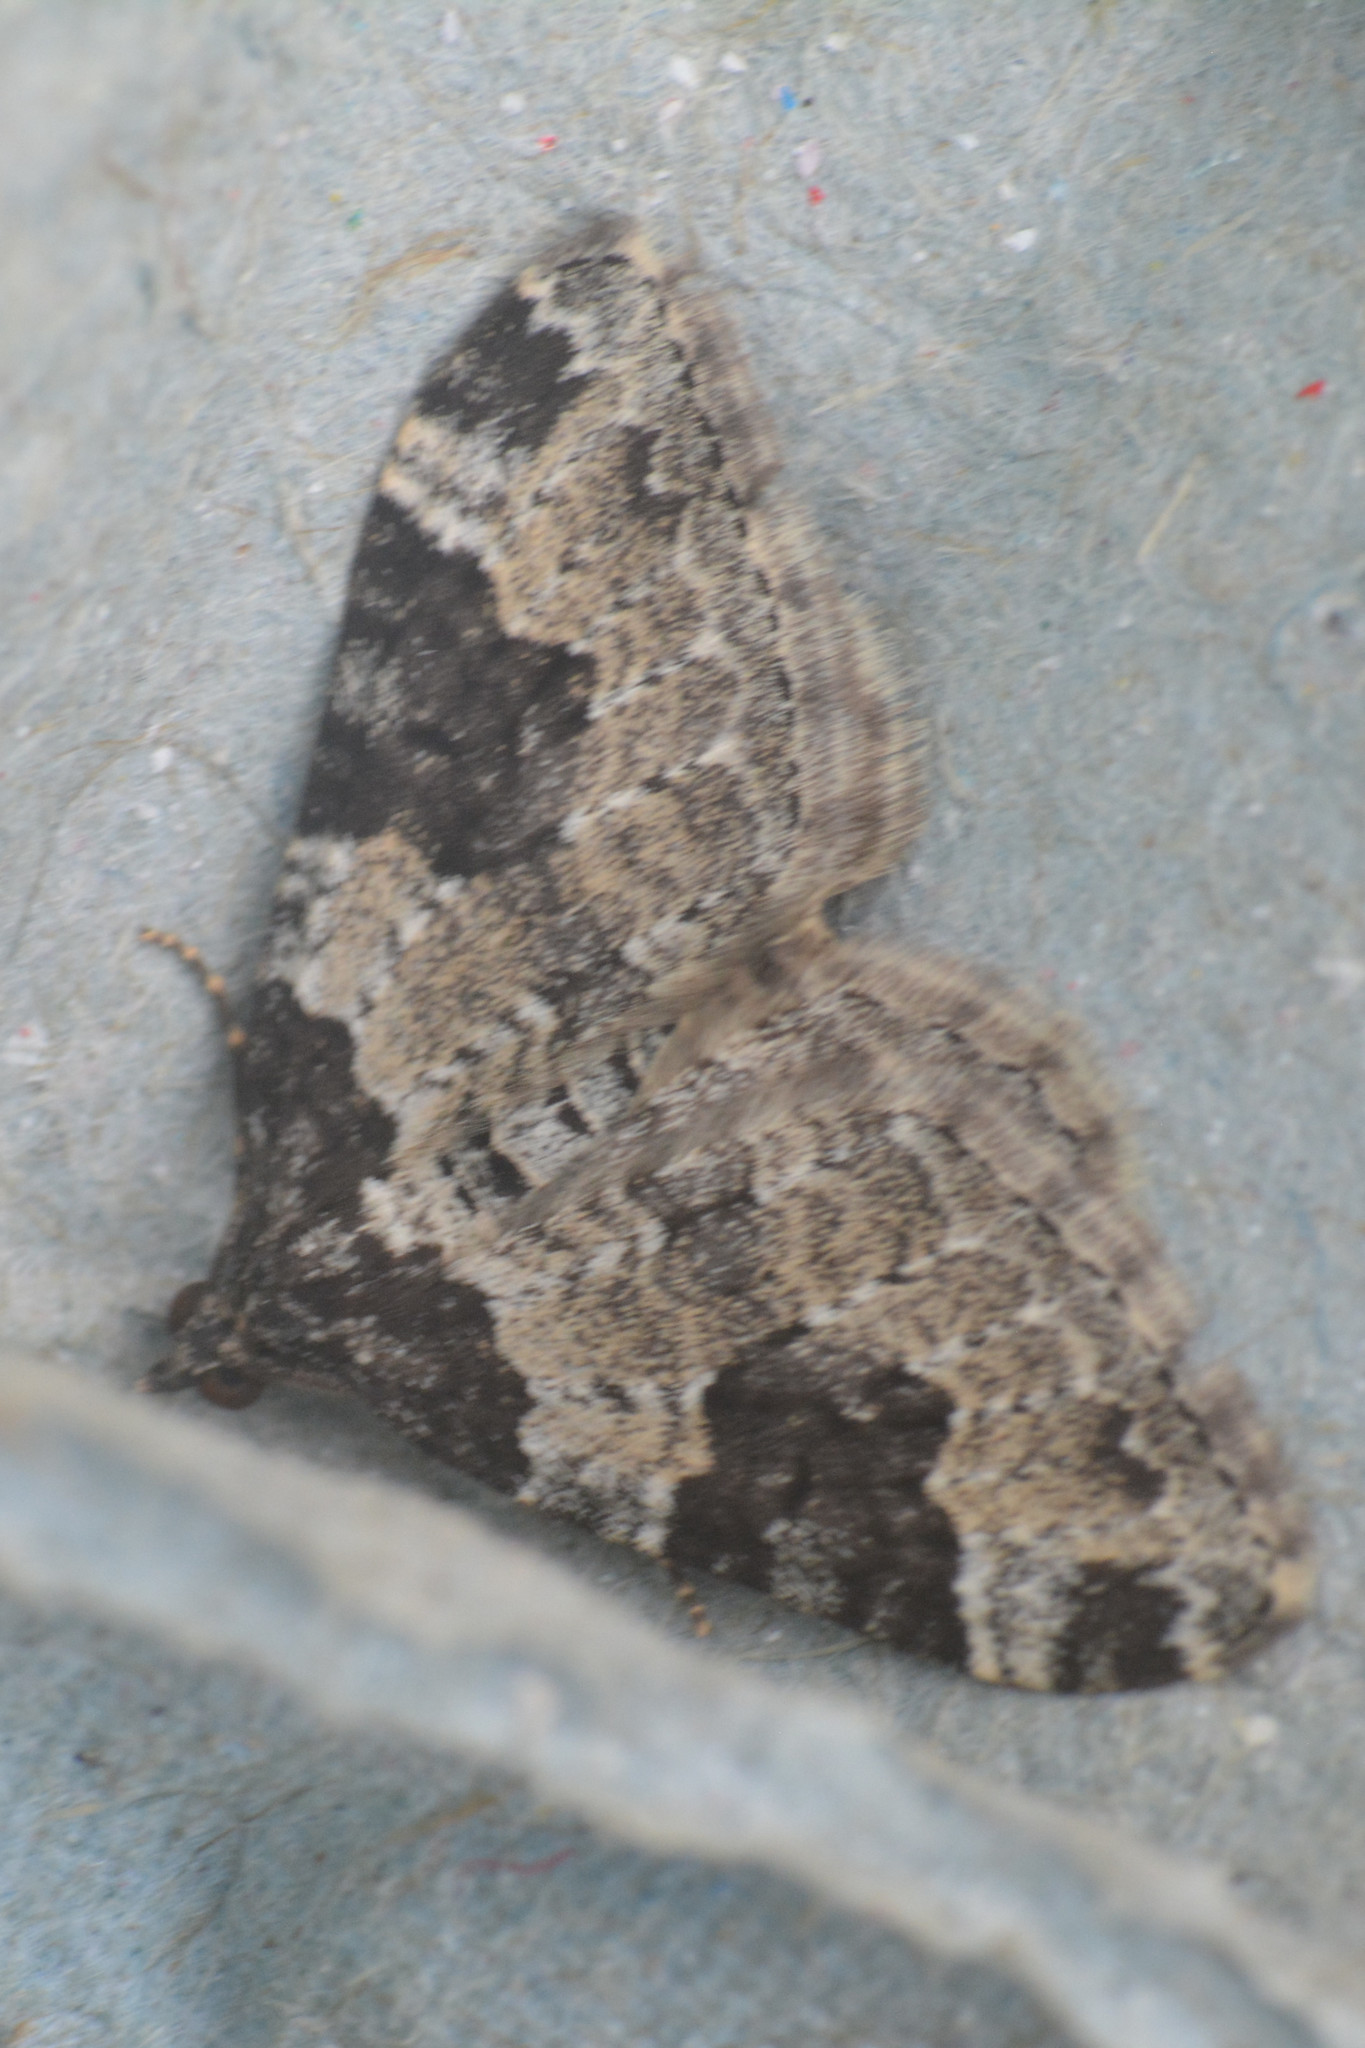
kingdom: Animalia
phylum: Arthropoda
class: Insecta
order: Lepidoptera
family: Geometridae
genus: Xanthorhoe
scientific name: Xanthorhoe fluctuata
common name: Garden carpet
